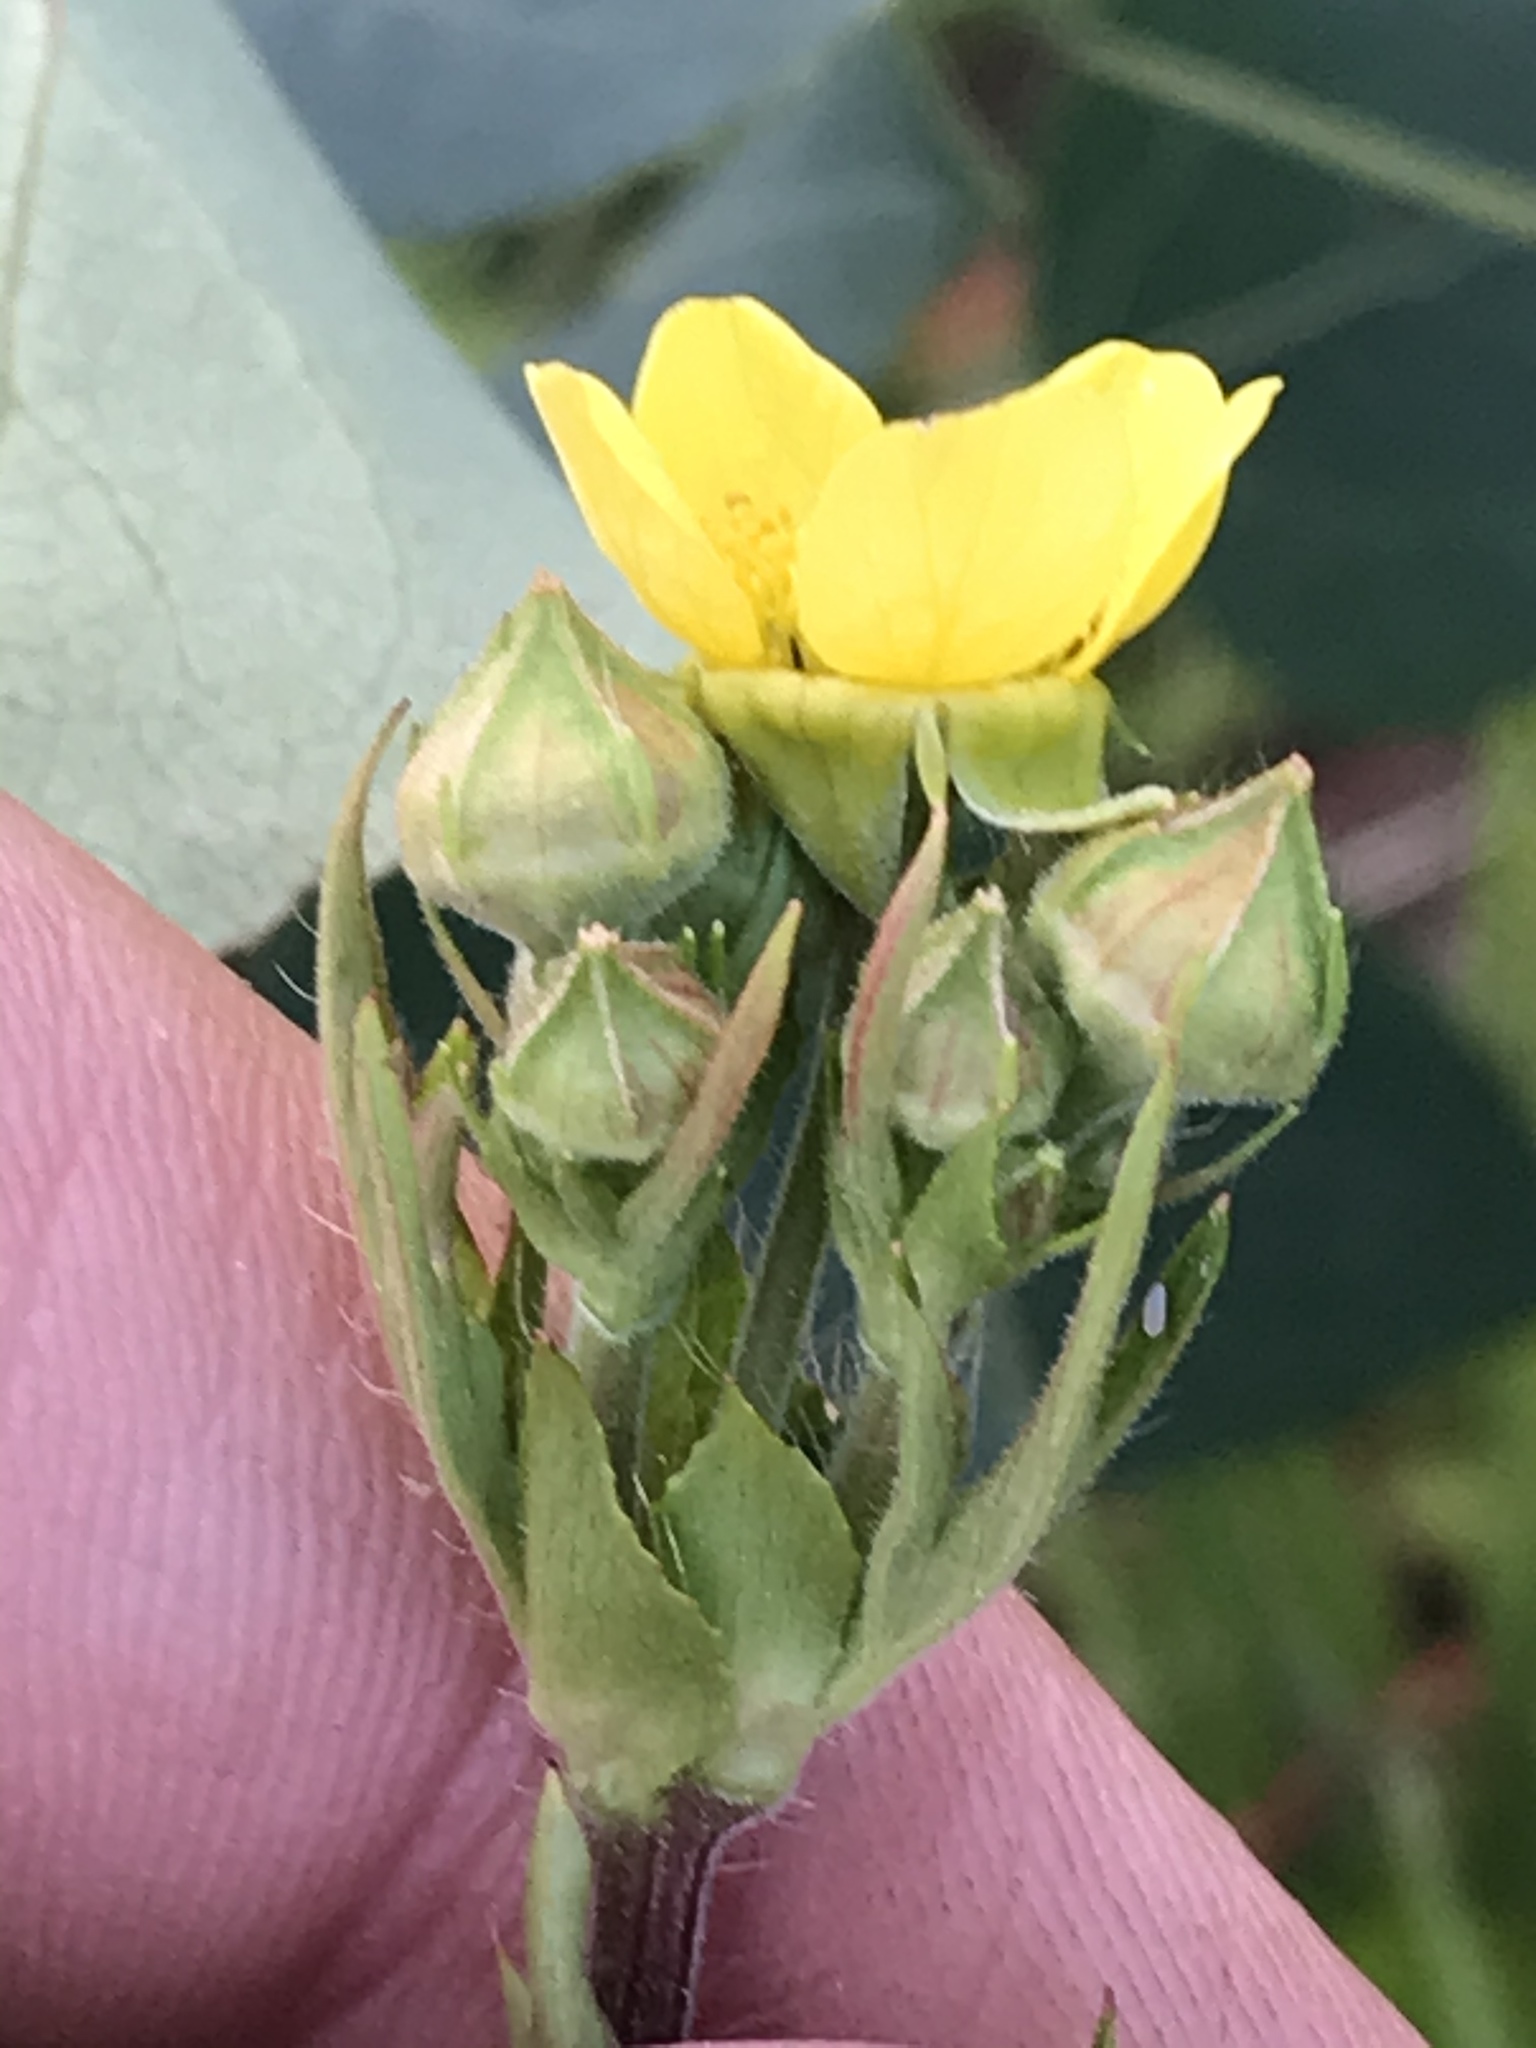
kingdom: Plantae
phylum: Tracheophyta
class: Magnoliopsida
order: Rosales
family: Rosaceae
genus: Geum
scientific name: Geum aleppicum
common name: Yellow avens
